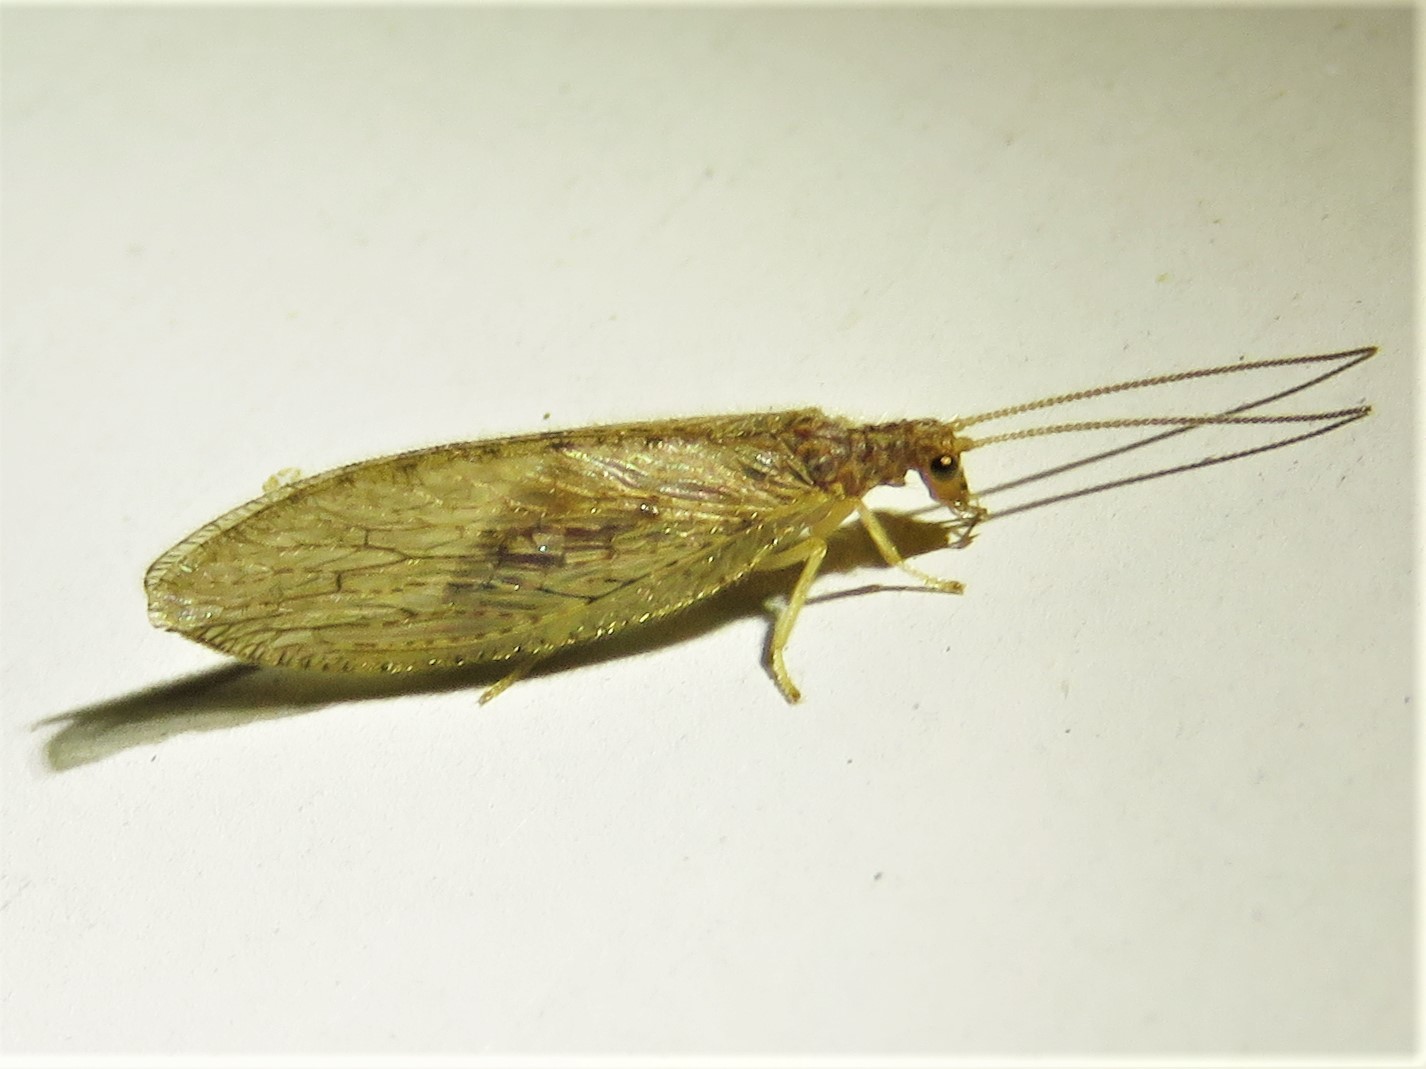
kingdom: Animalia
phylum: Arthropoda
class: Insecta
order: Neuroptera
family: Hemerobiidae
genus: Micromus
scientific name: Micromus subanticus
